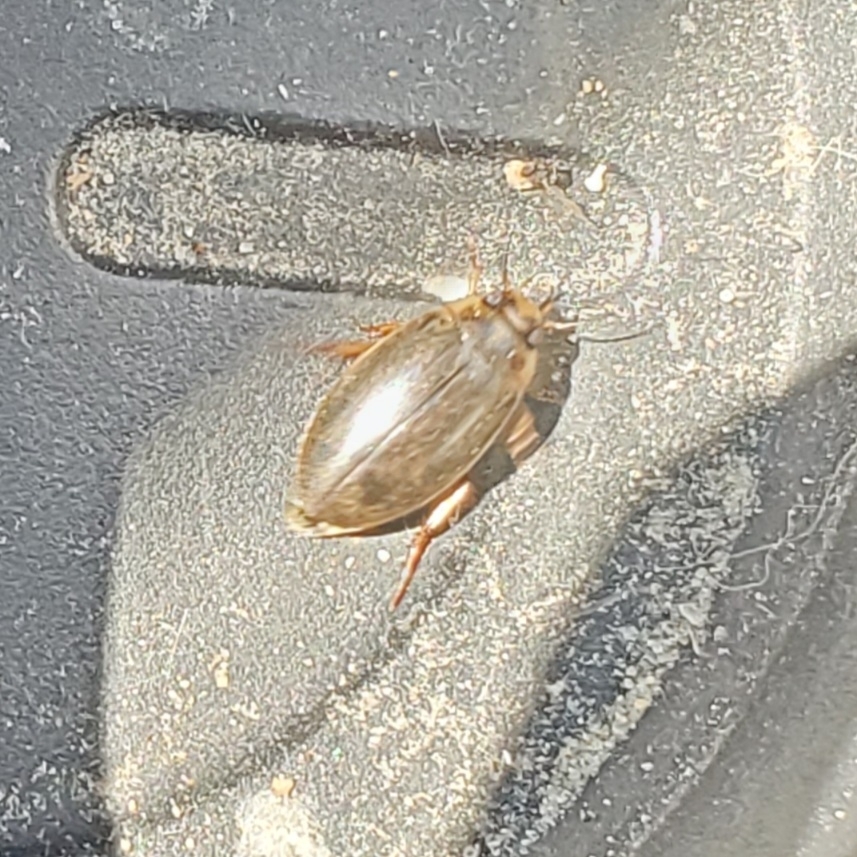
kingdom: Animalia
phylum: Arthropoda
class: Insecta
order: Coleoptera
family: Dytiscidae
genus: Rhantus
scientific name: Rhantus
